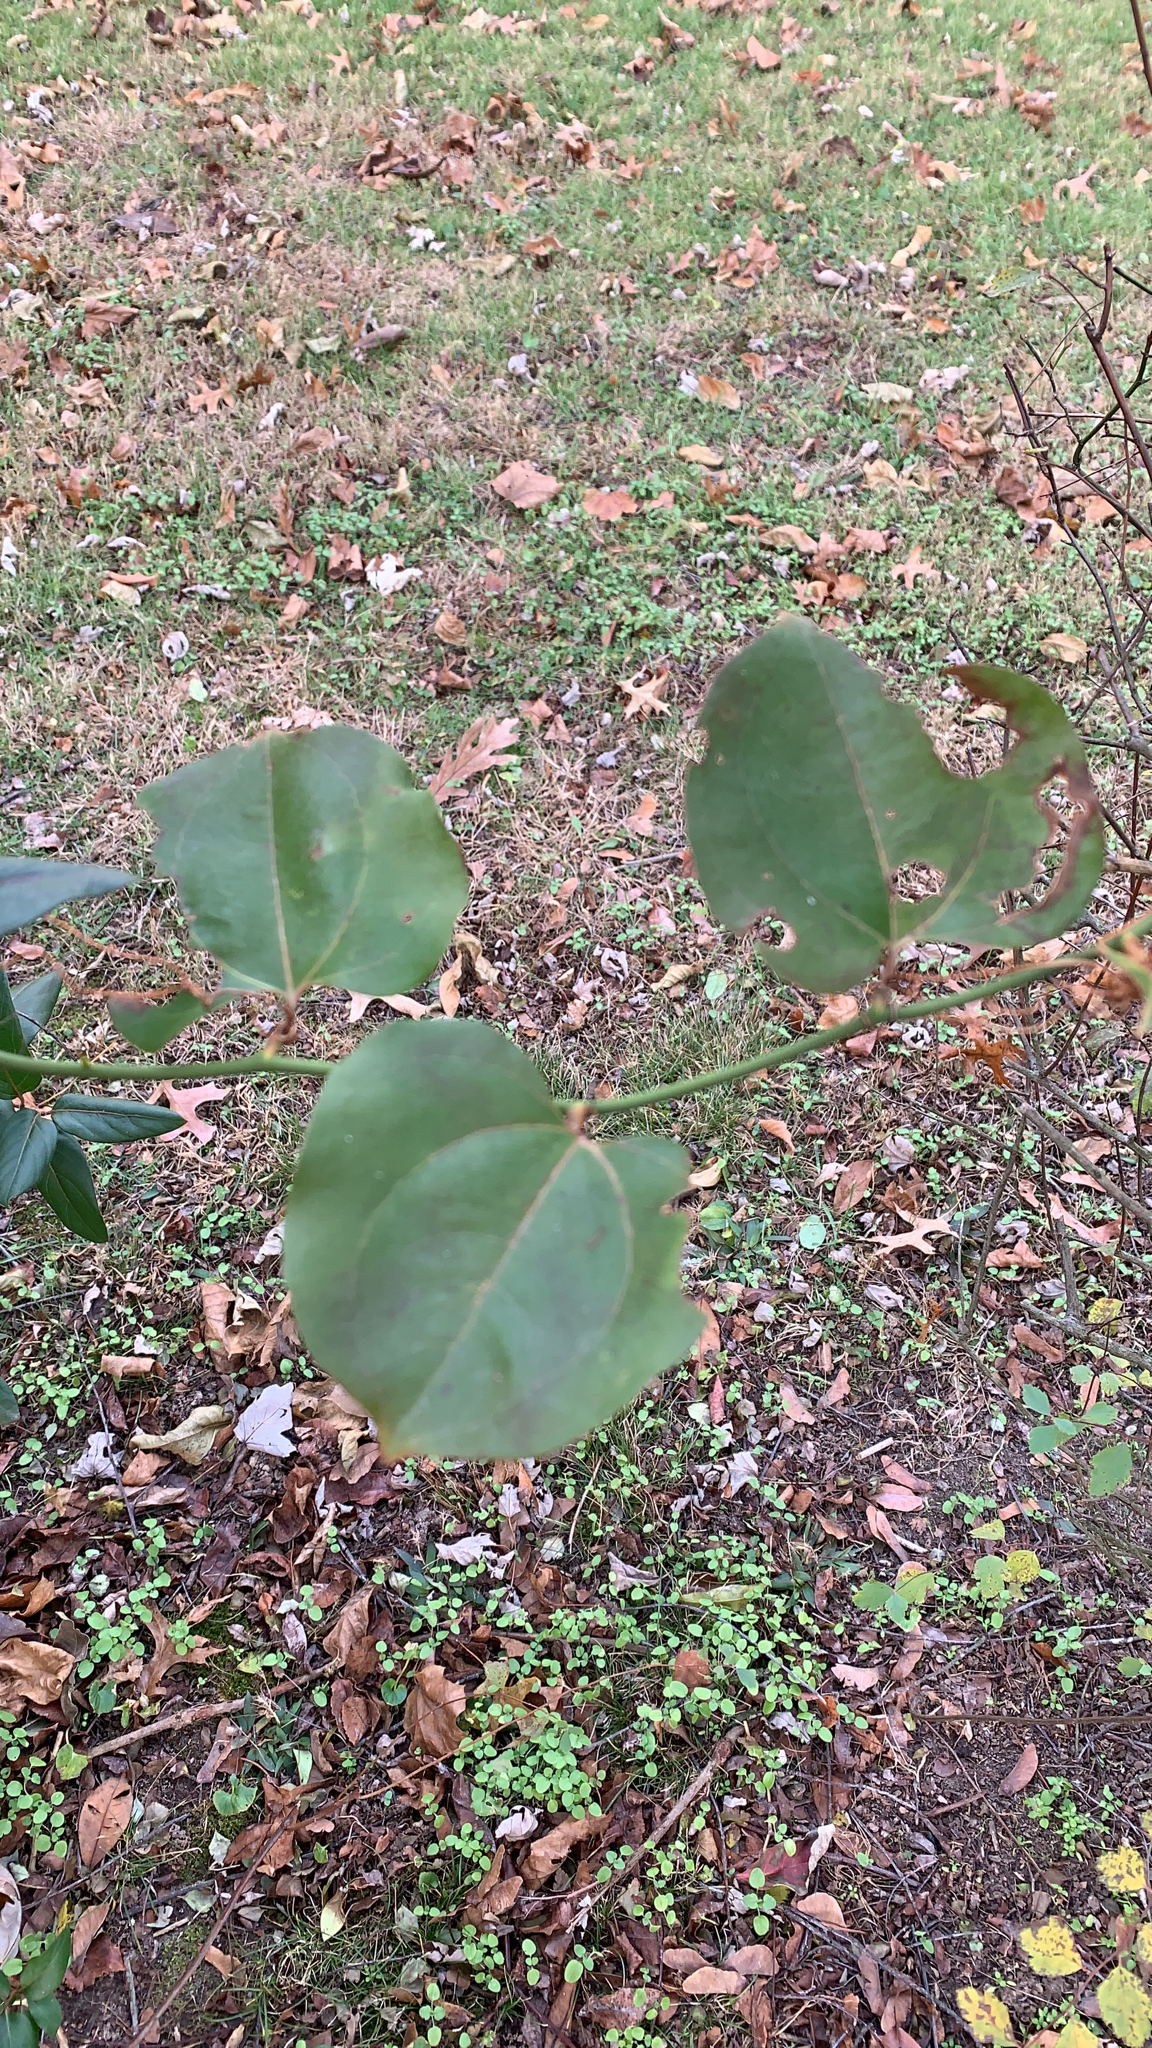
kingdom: Plantae
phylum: Tracheophyta
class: Liliopsida
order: Liliales
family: Smilacaceae
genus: Smilax
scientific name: Smilax rotundifolia
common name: Bullbriar
